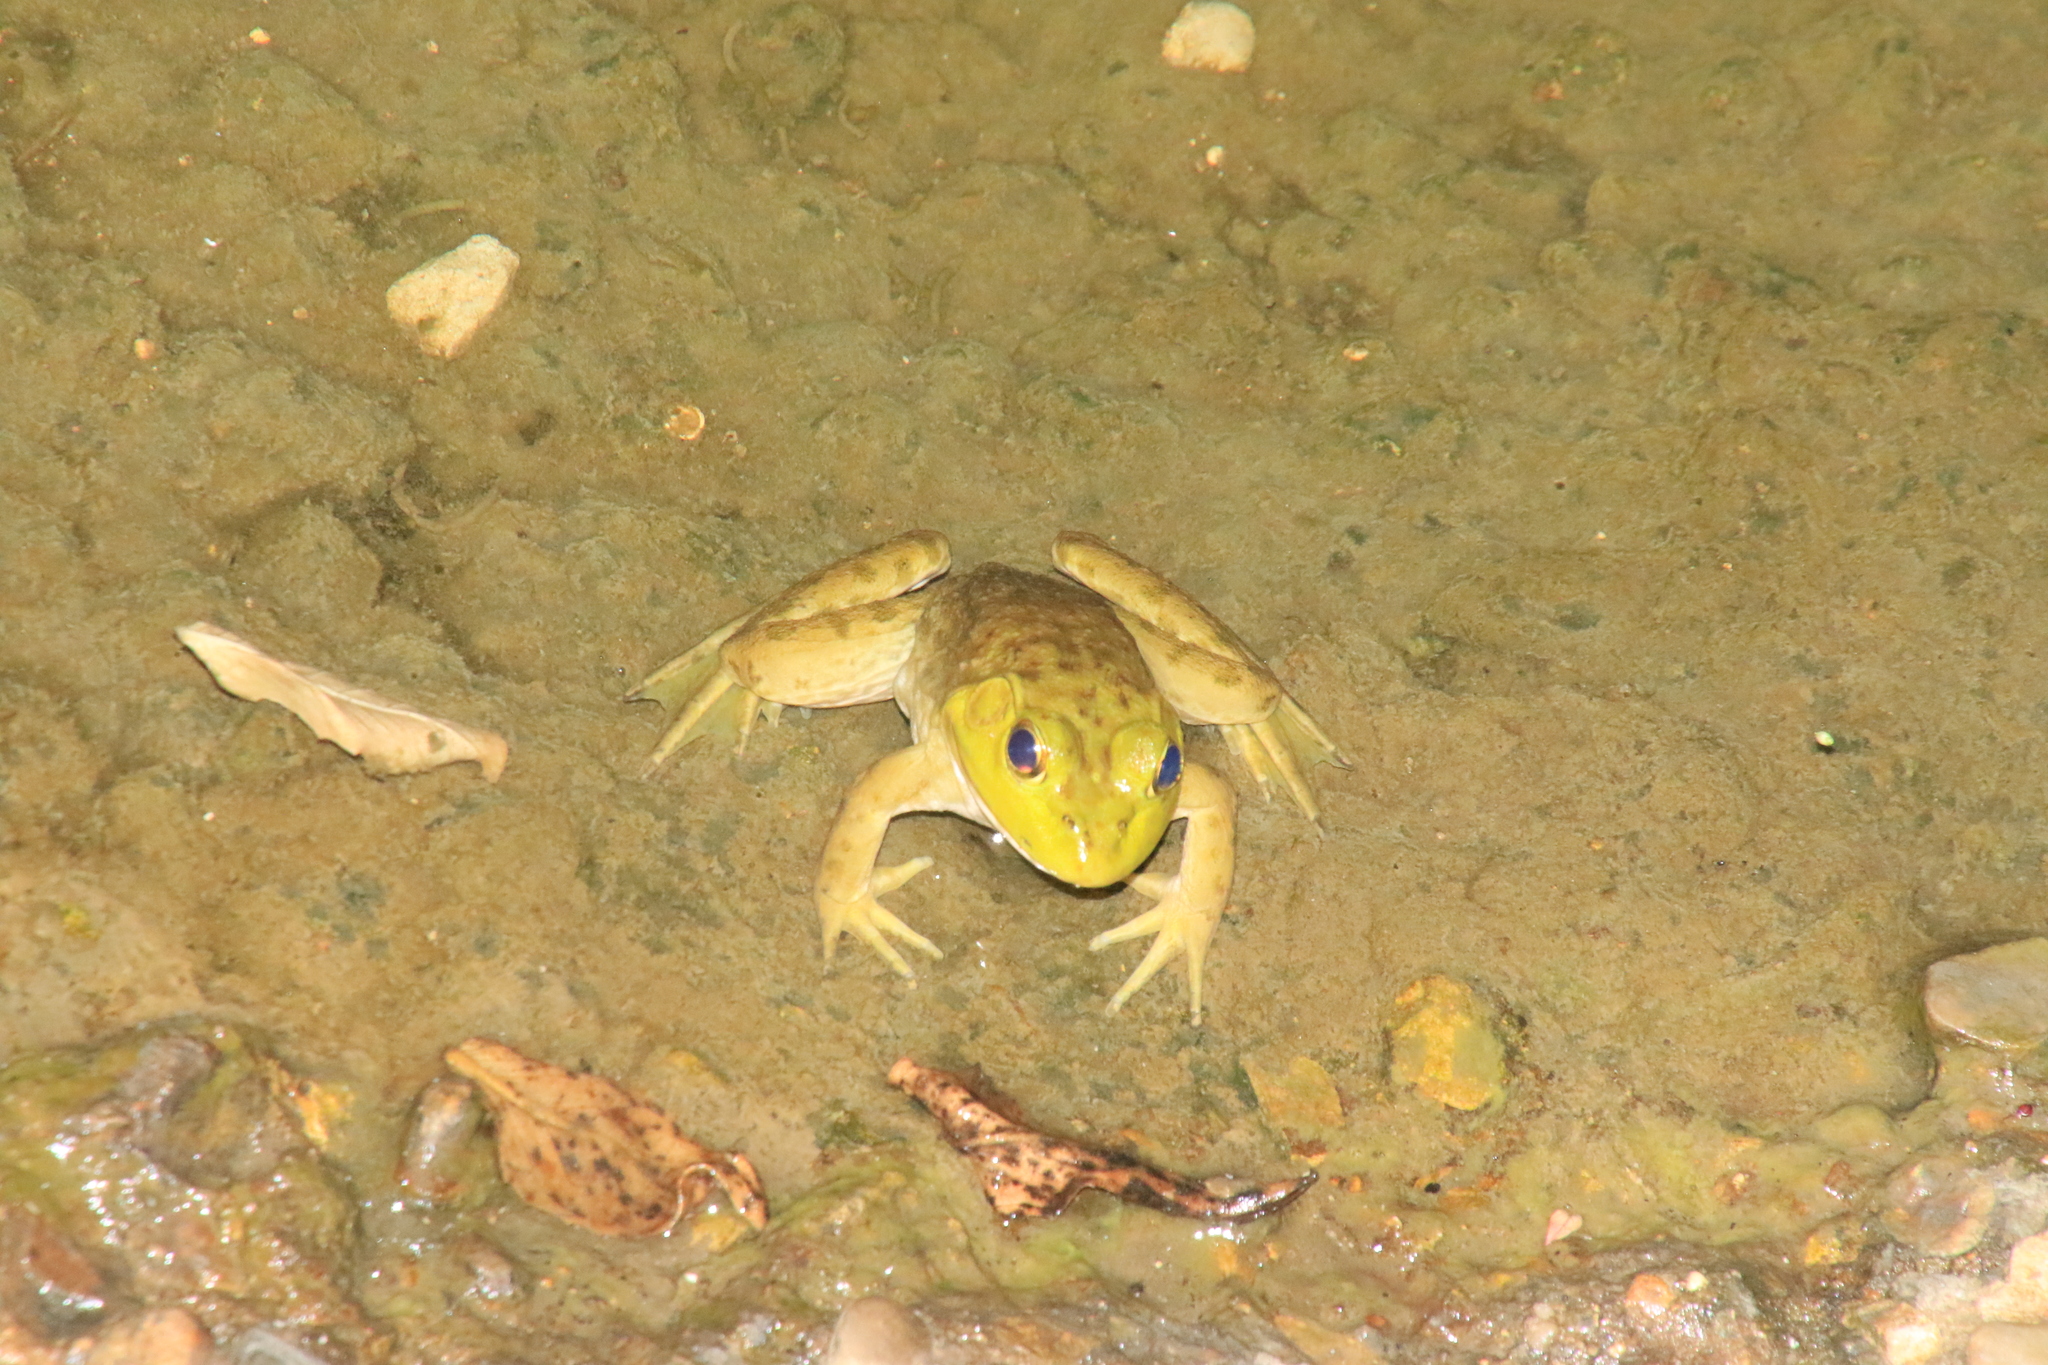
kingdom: Animalia
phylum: Chordata
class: Amphibia
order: Anura
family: Ranidae
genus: Lithobates
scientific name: Lithobates catesbeianus
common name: American bullfrog
